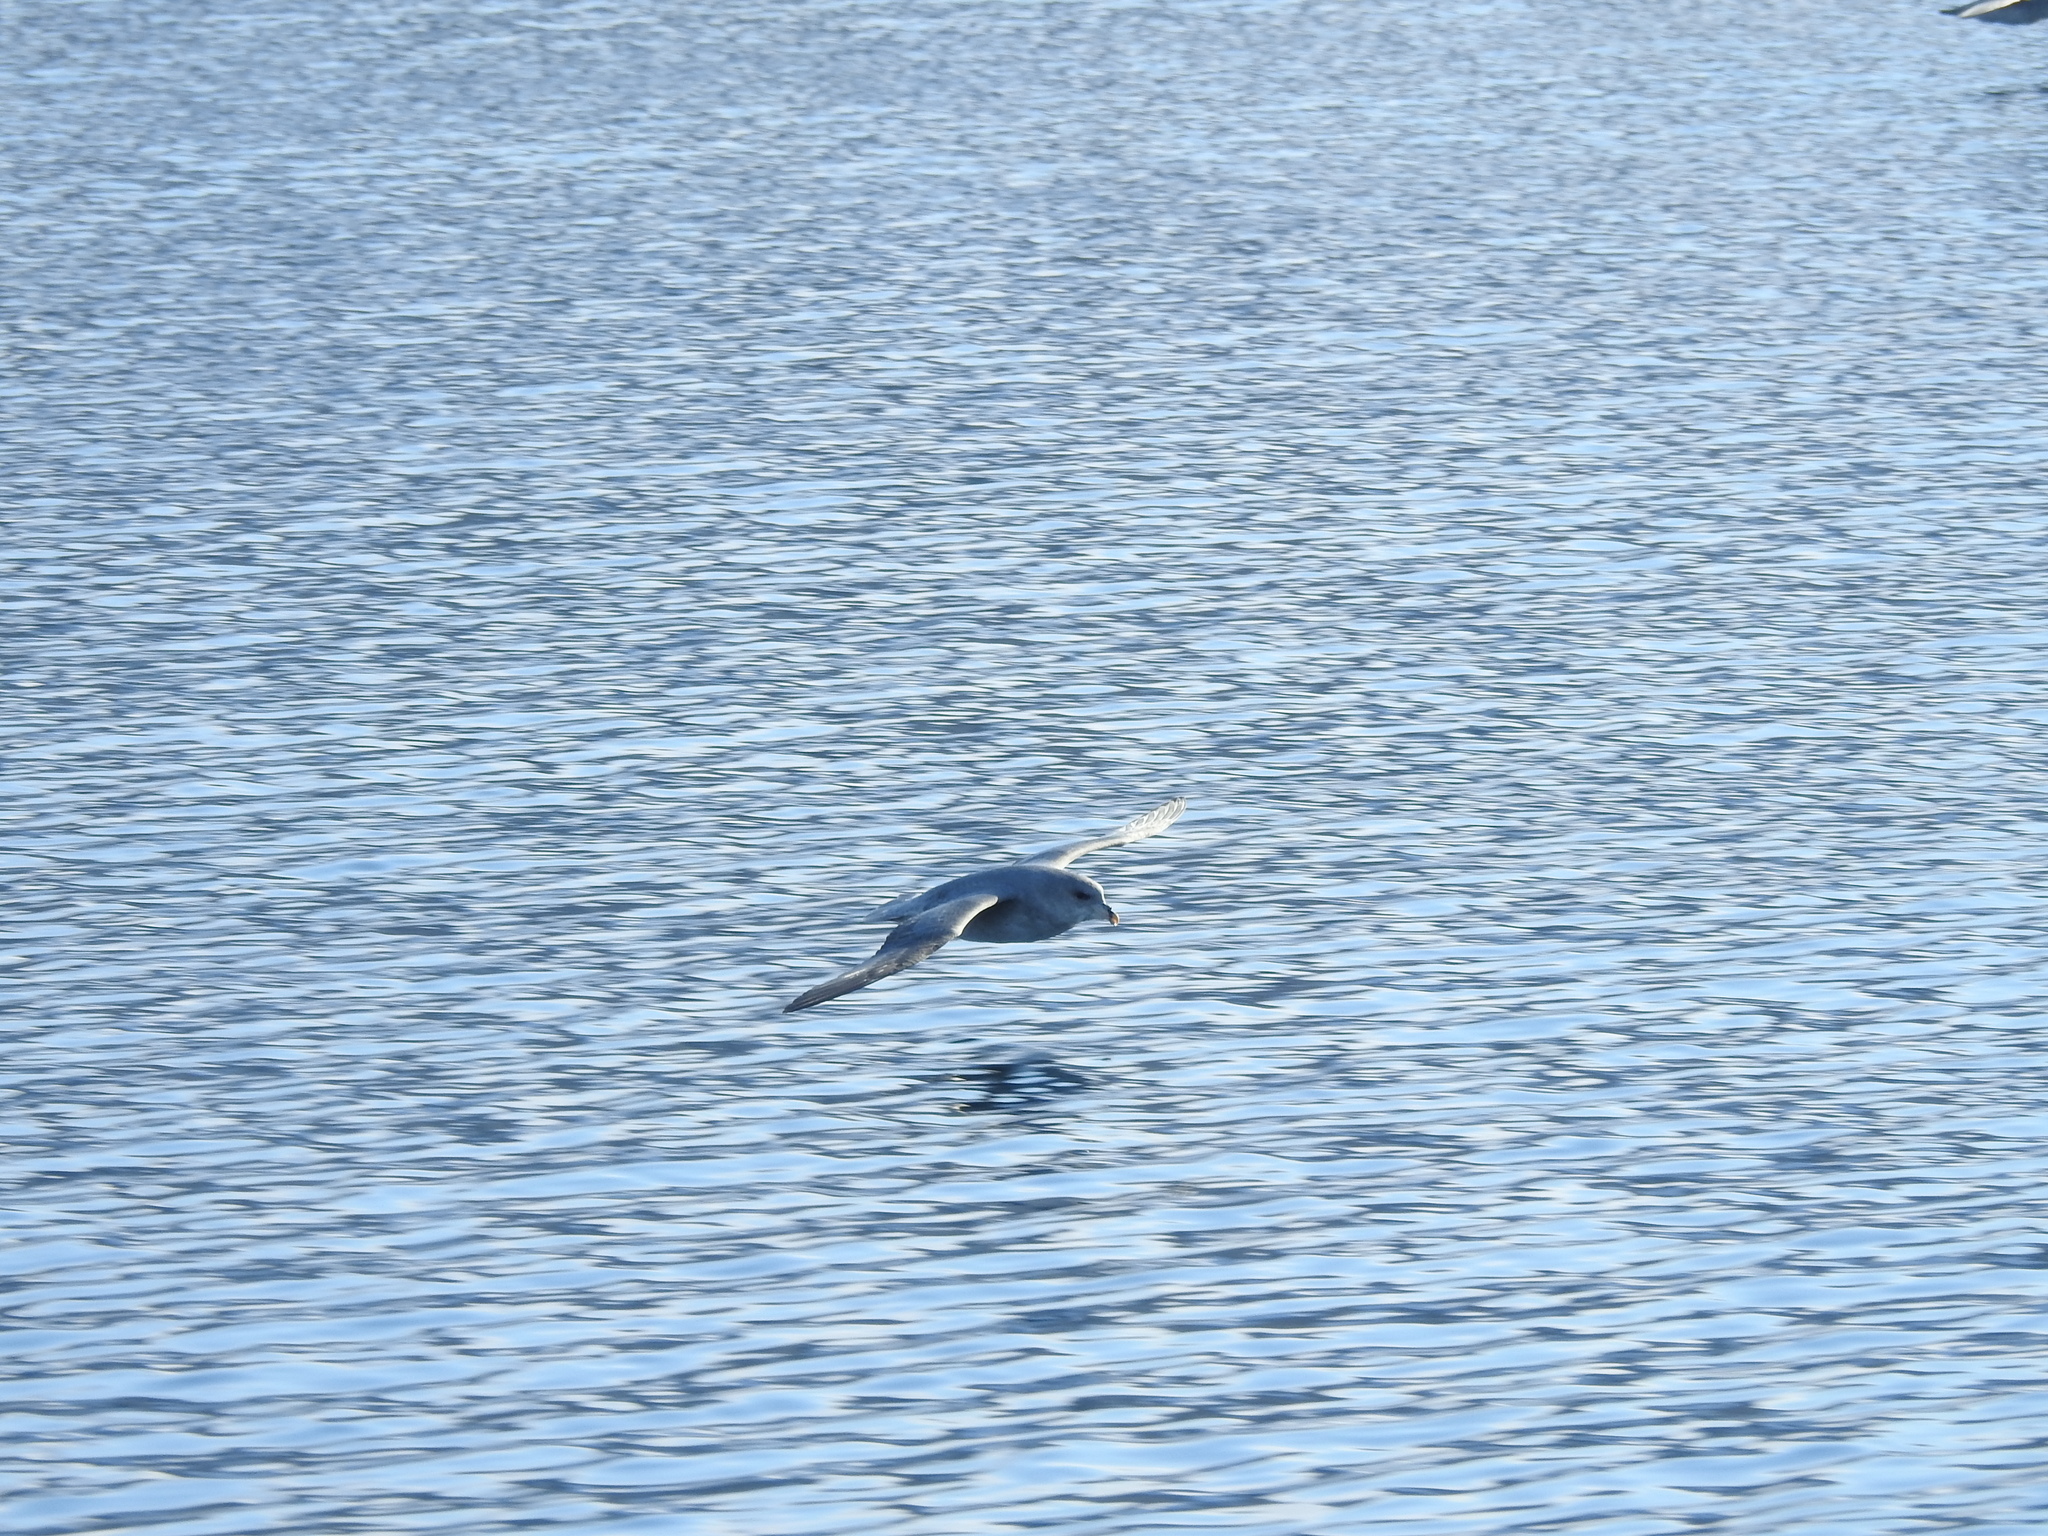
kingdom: Animalia
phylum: Chordata
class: Aves
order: Procellariiformes
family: Procellariidae
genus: Fulmarus
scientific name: Fulmarus glacialis
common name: Northern fulmar
